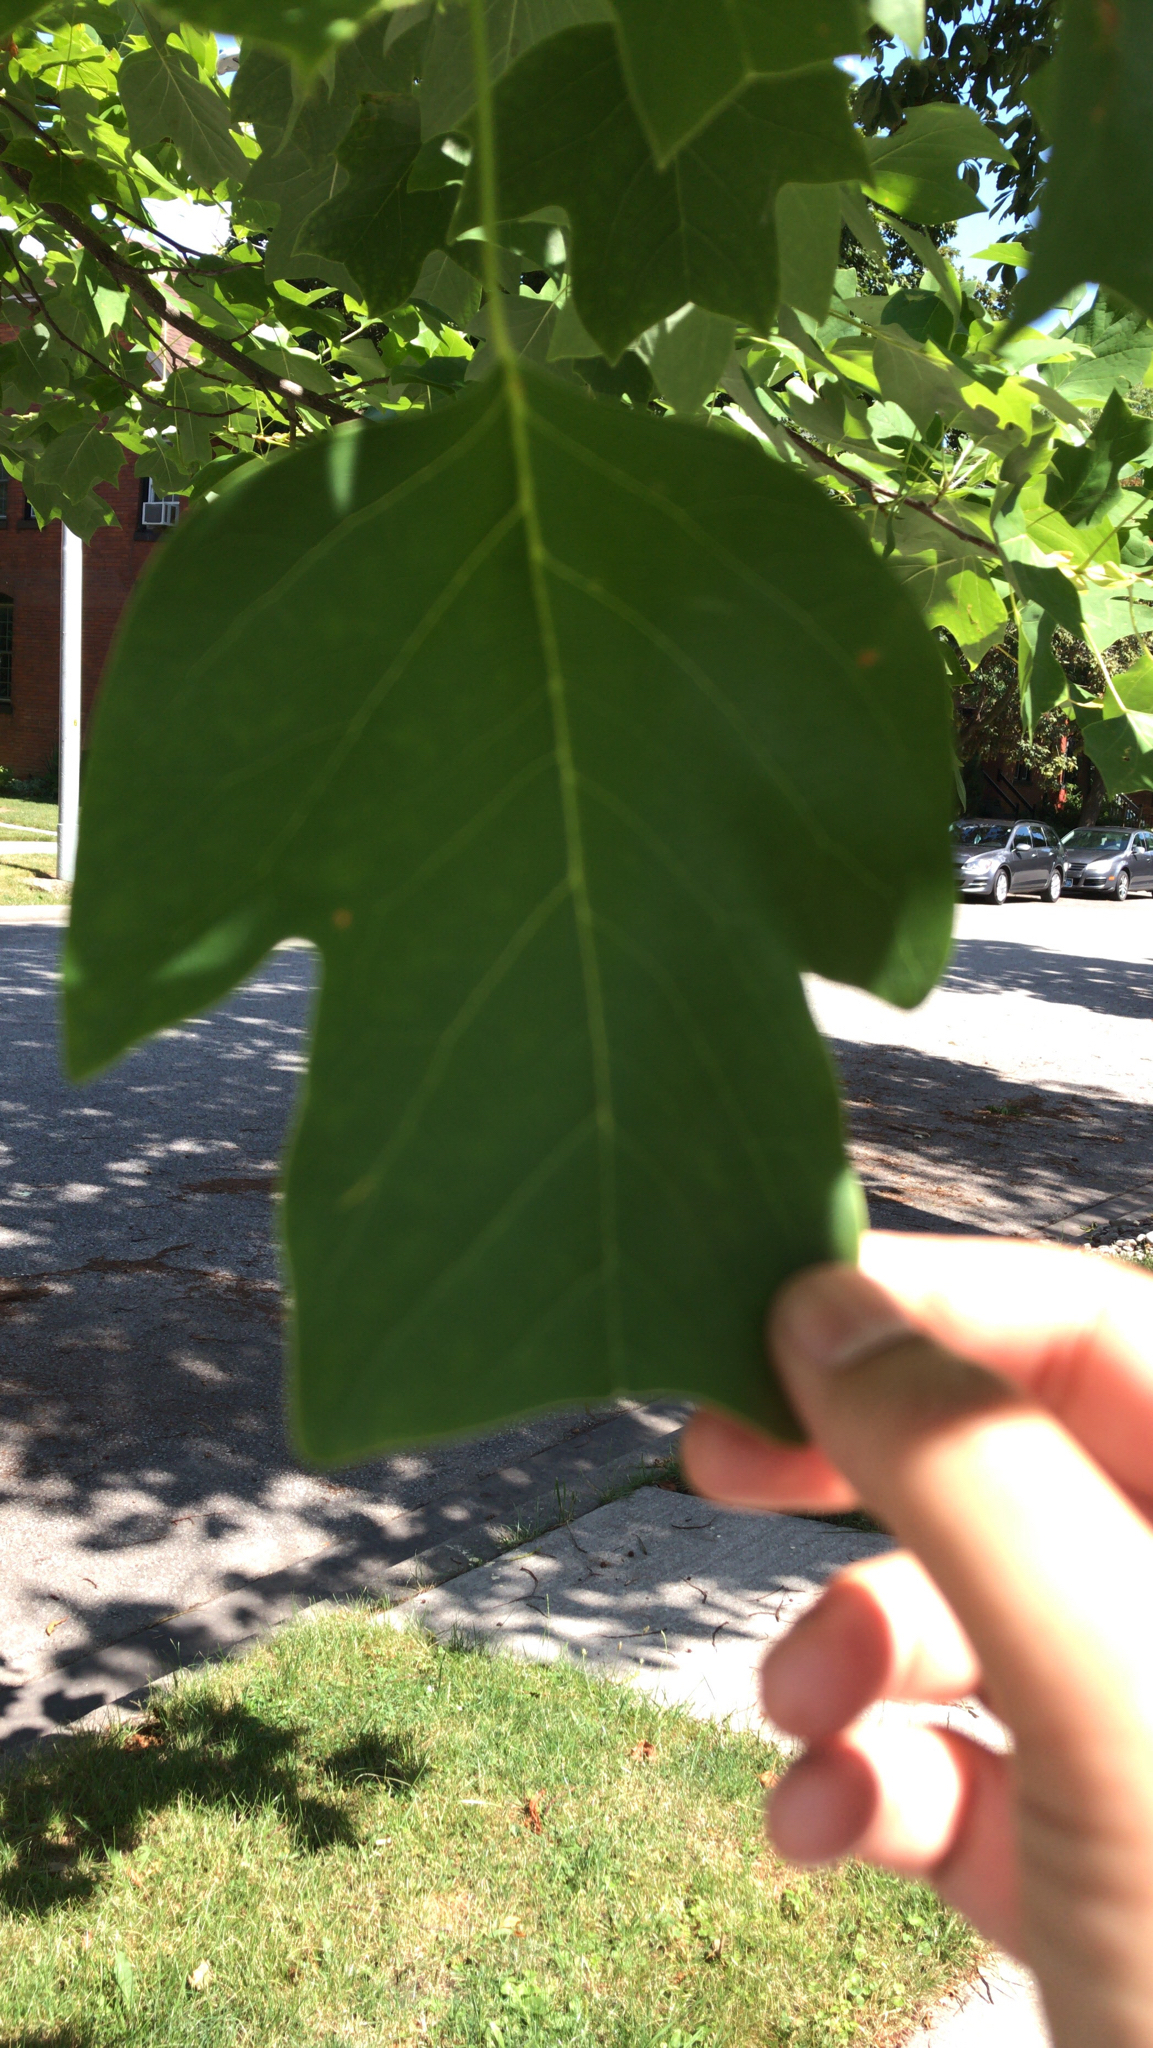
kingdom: Plantae
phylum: Tracheophyta
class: Magnoliopsida
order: Magnoliales
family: Magnoliaceae
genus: Liriodendron
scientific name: Liriodendron tulipifera
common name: Tulip tree
